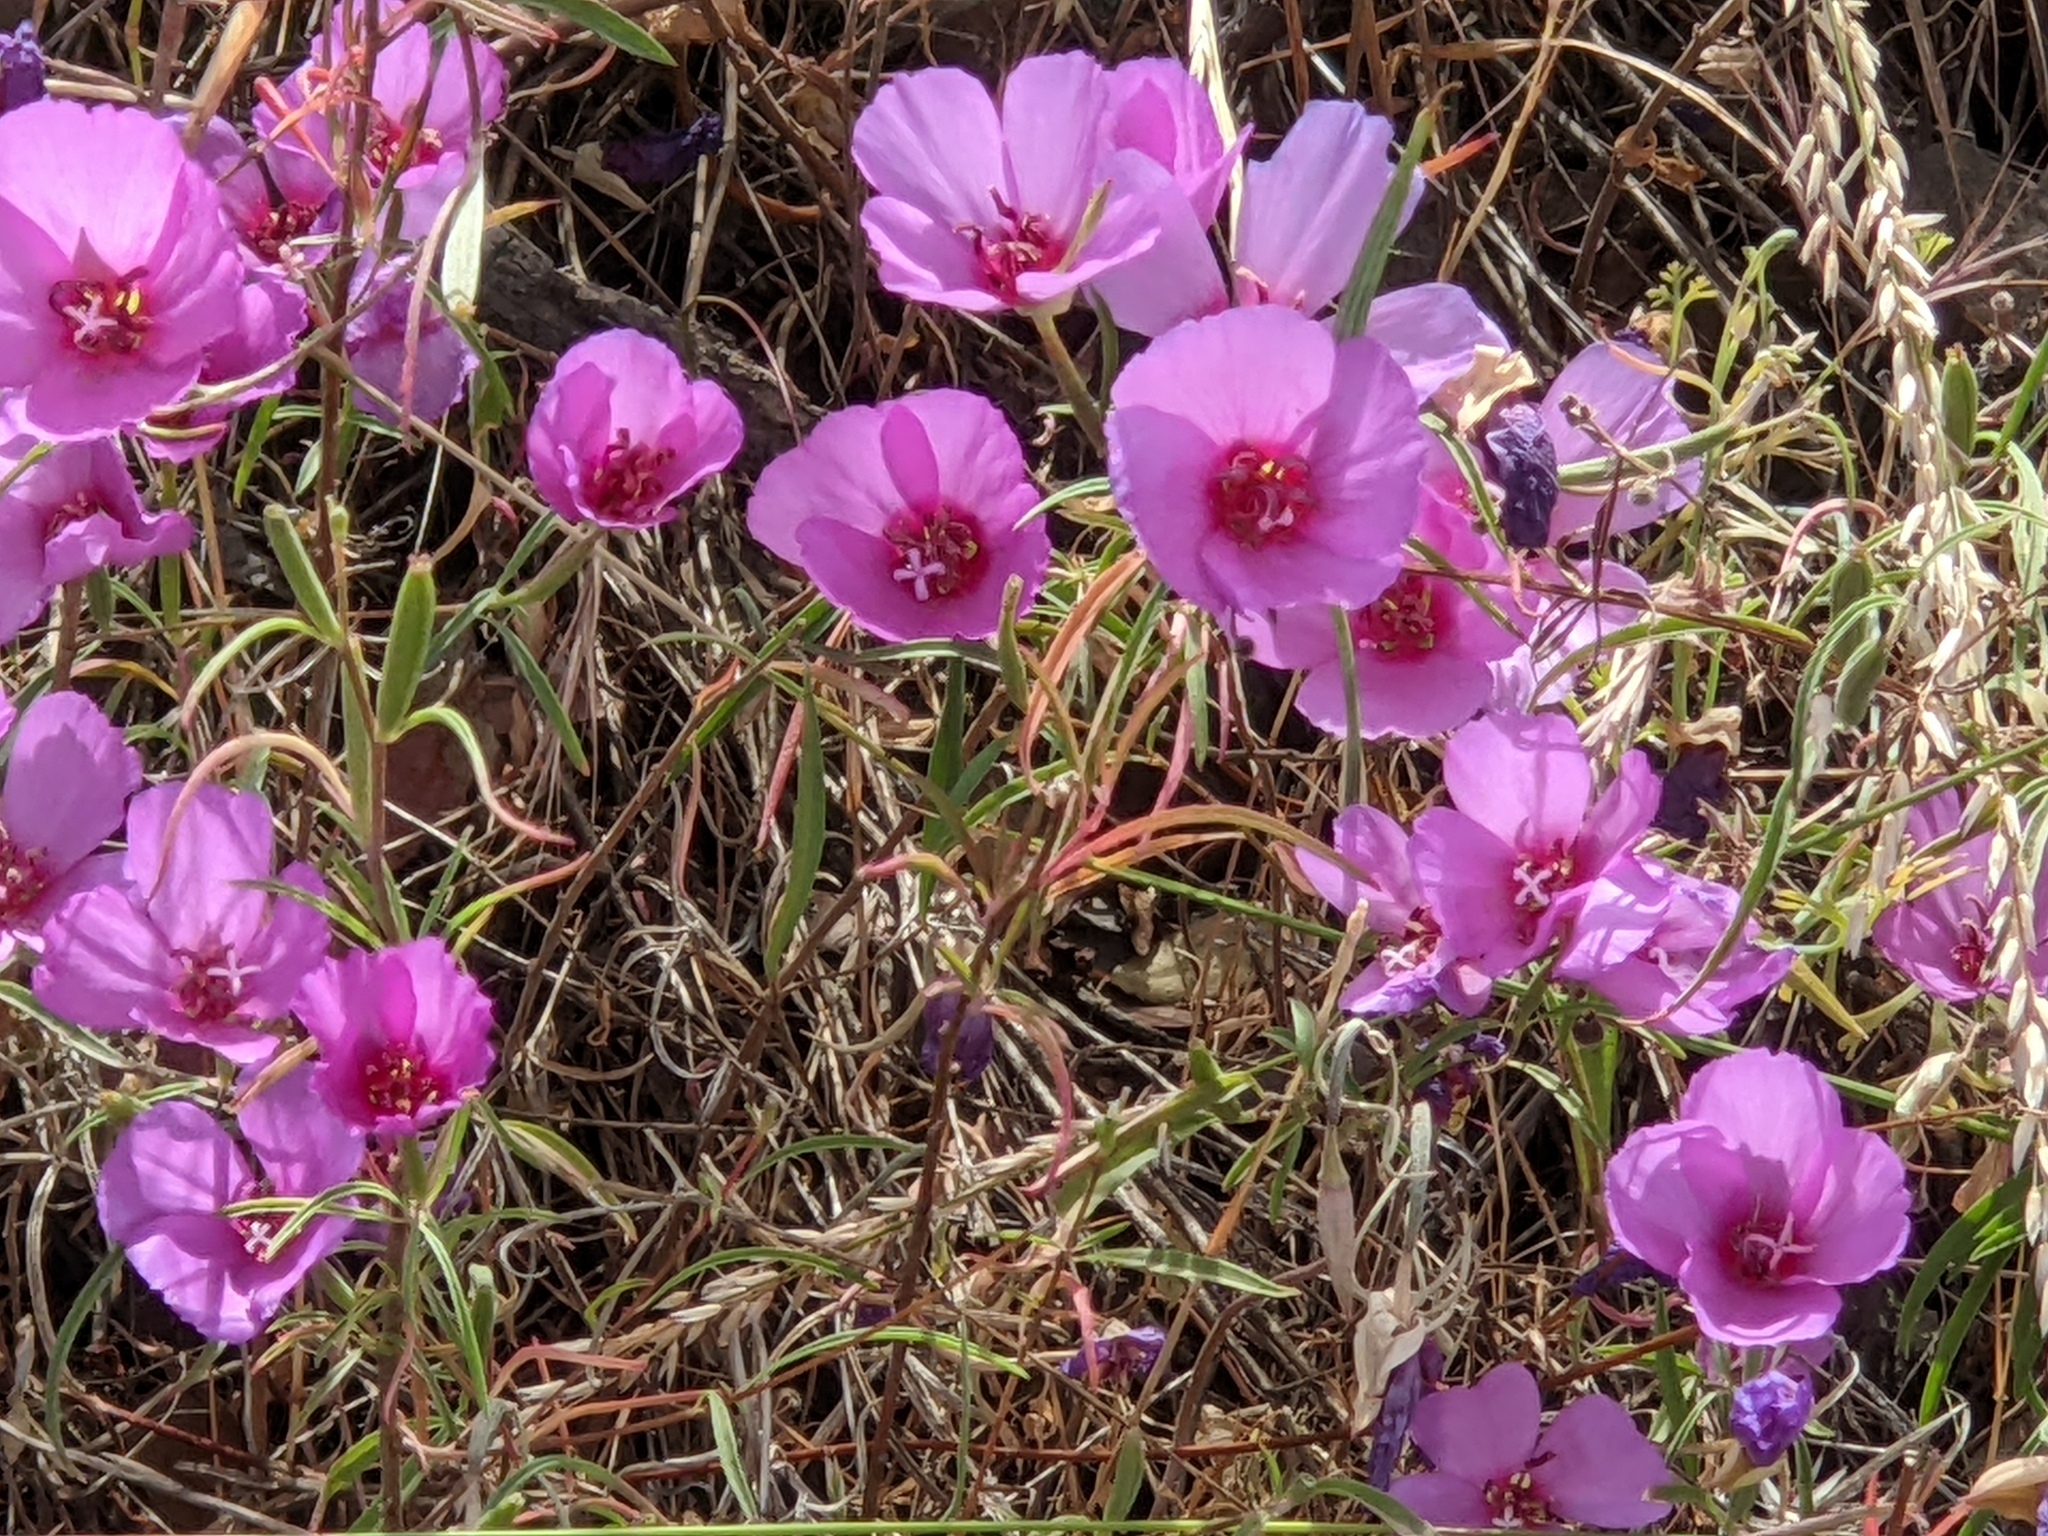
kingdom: Plantae
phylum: Tracheophyta
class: Magnoliopsida
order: Myrtales
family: Onagraceae
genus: Clarkia
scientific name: Clarkia rubicunda
